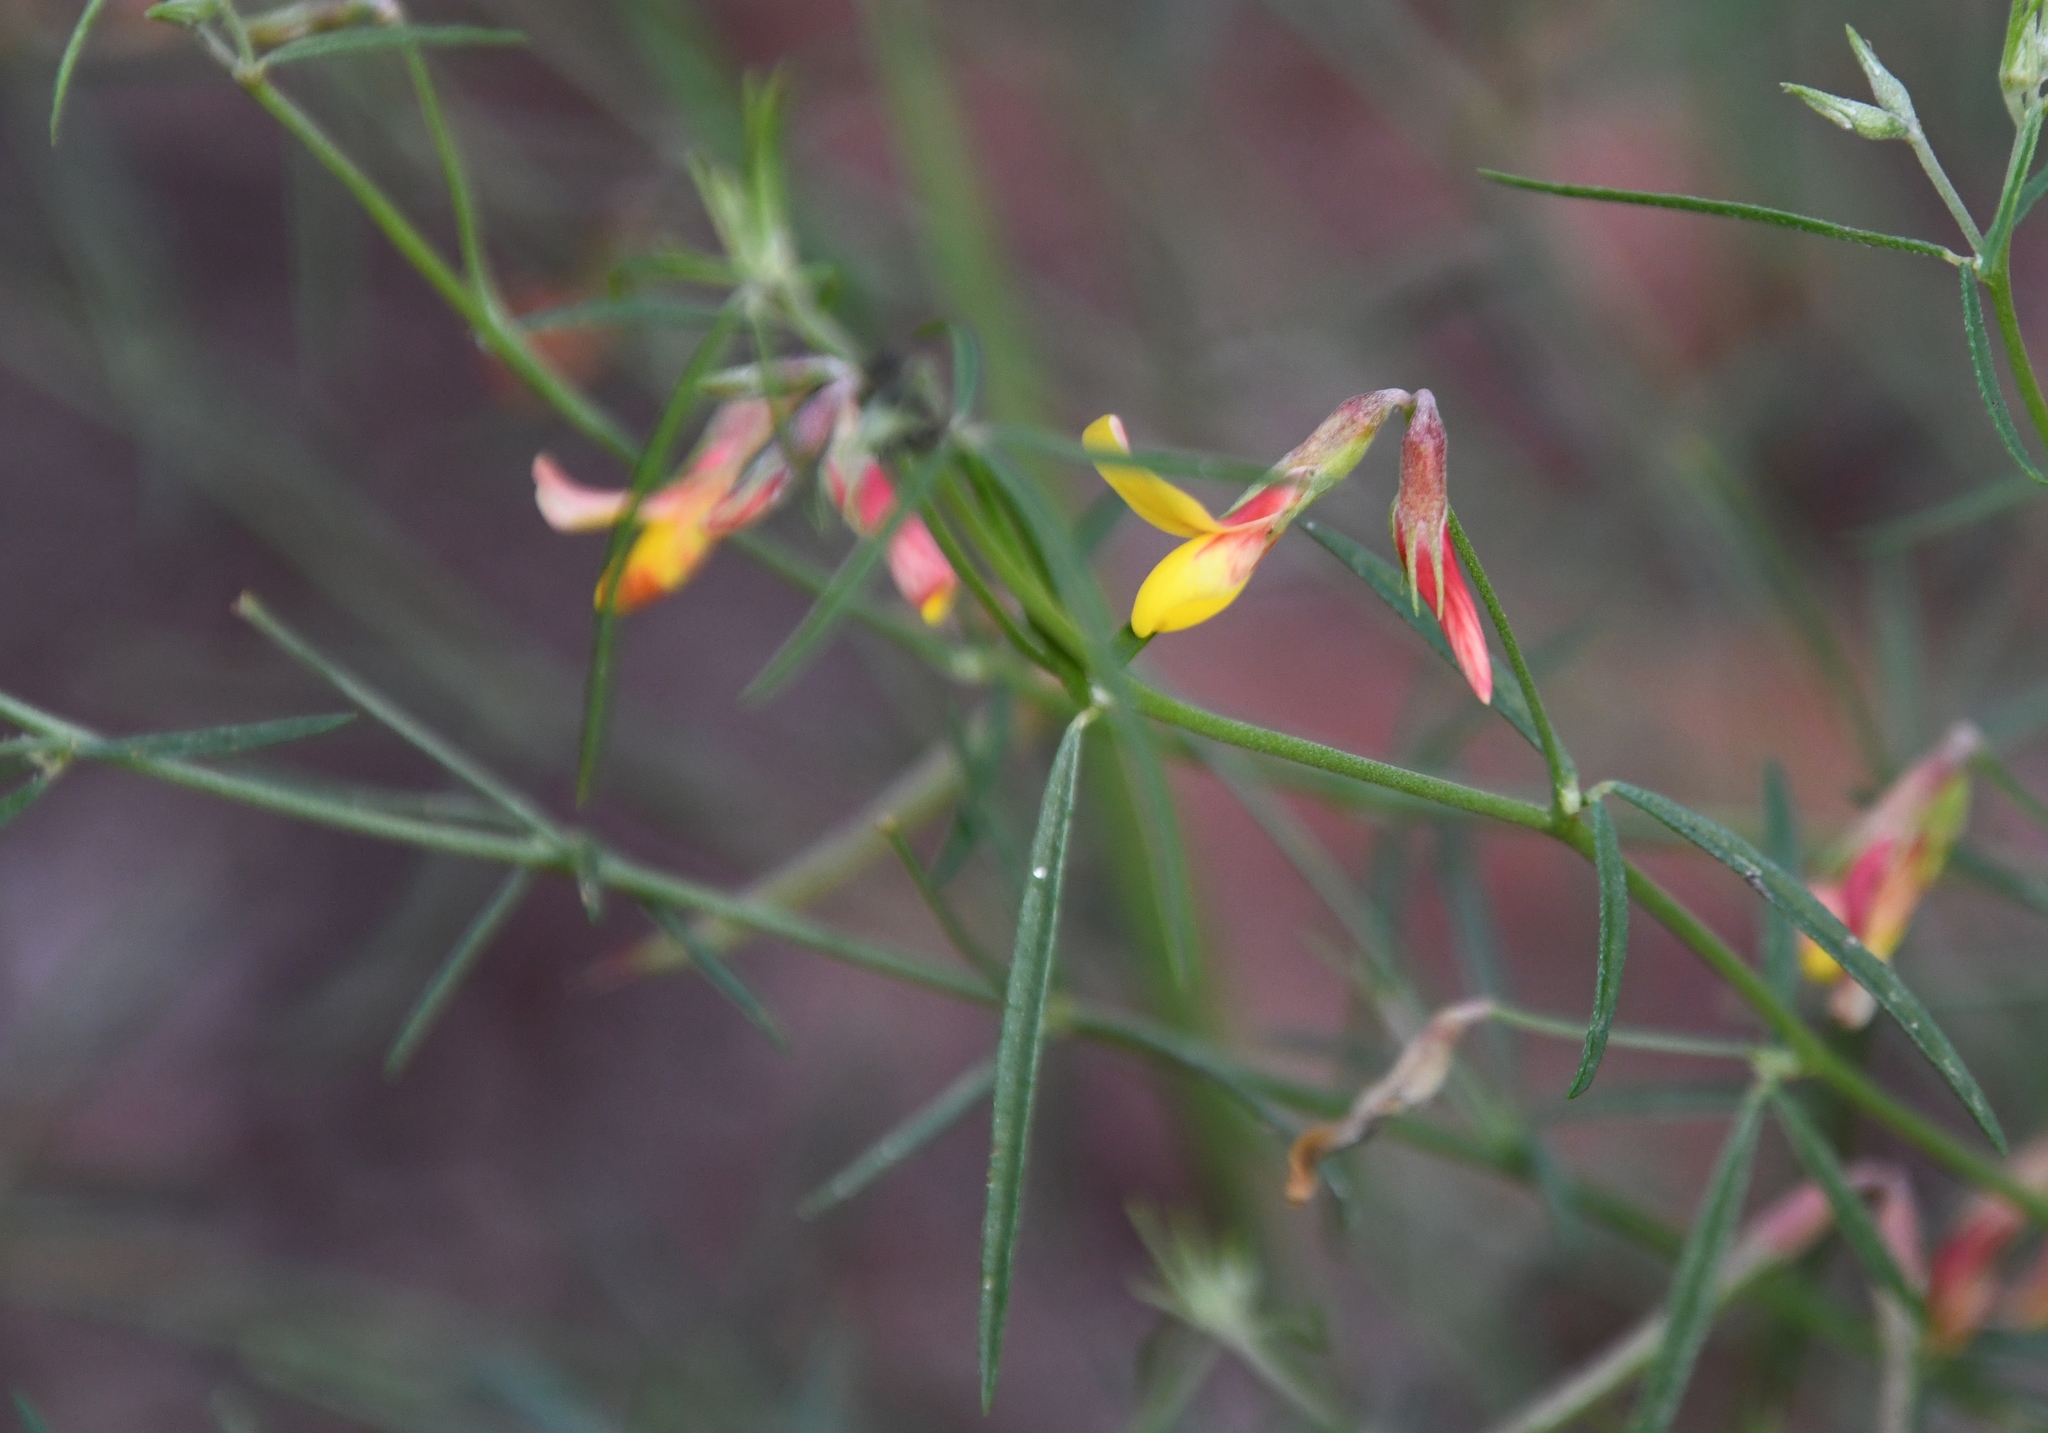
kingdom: Plantae
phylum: Tracheophyta
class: Magnoliopsida
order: Fabales
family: Fabaceae
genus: Acmispon
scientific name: Acmispon oroboides
